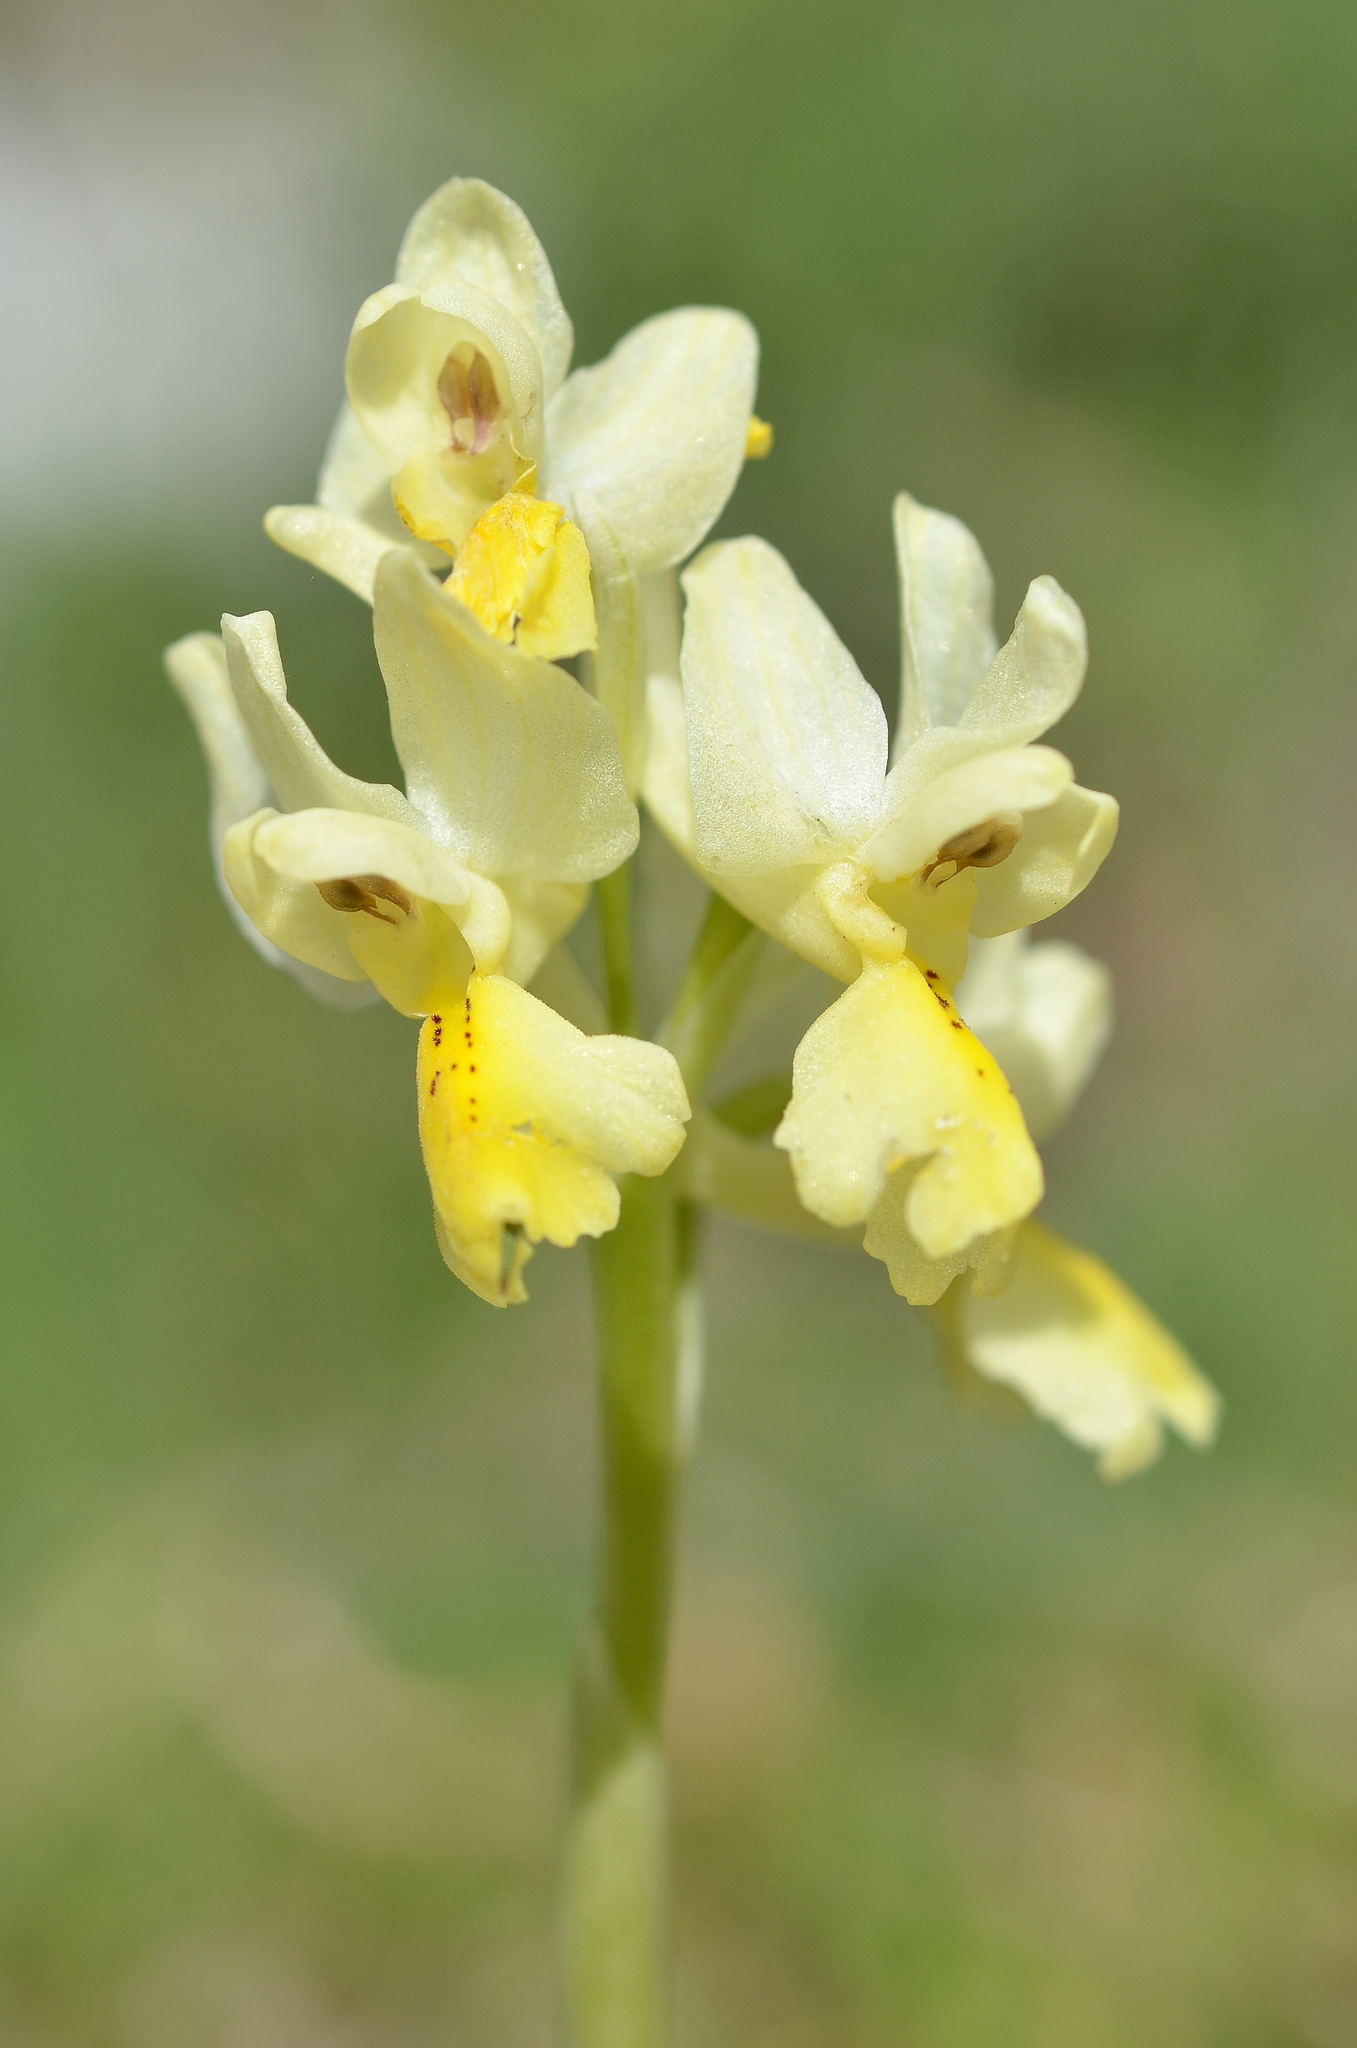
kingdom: Plantae
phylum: Tracheophyta
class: Liliopsida
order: Asparagales
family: Orchidaceae
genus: Orchis
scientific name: Orchis pauciflora
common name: Few-flowered orchid
